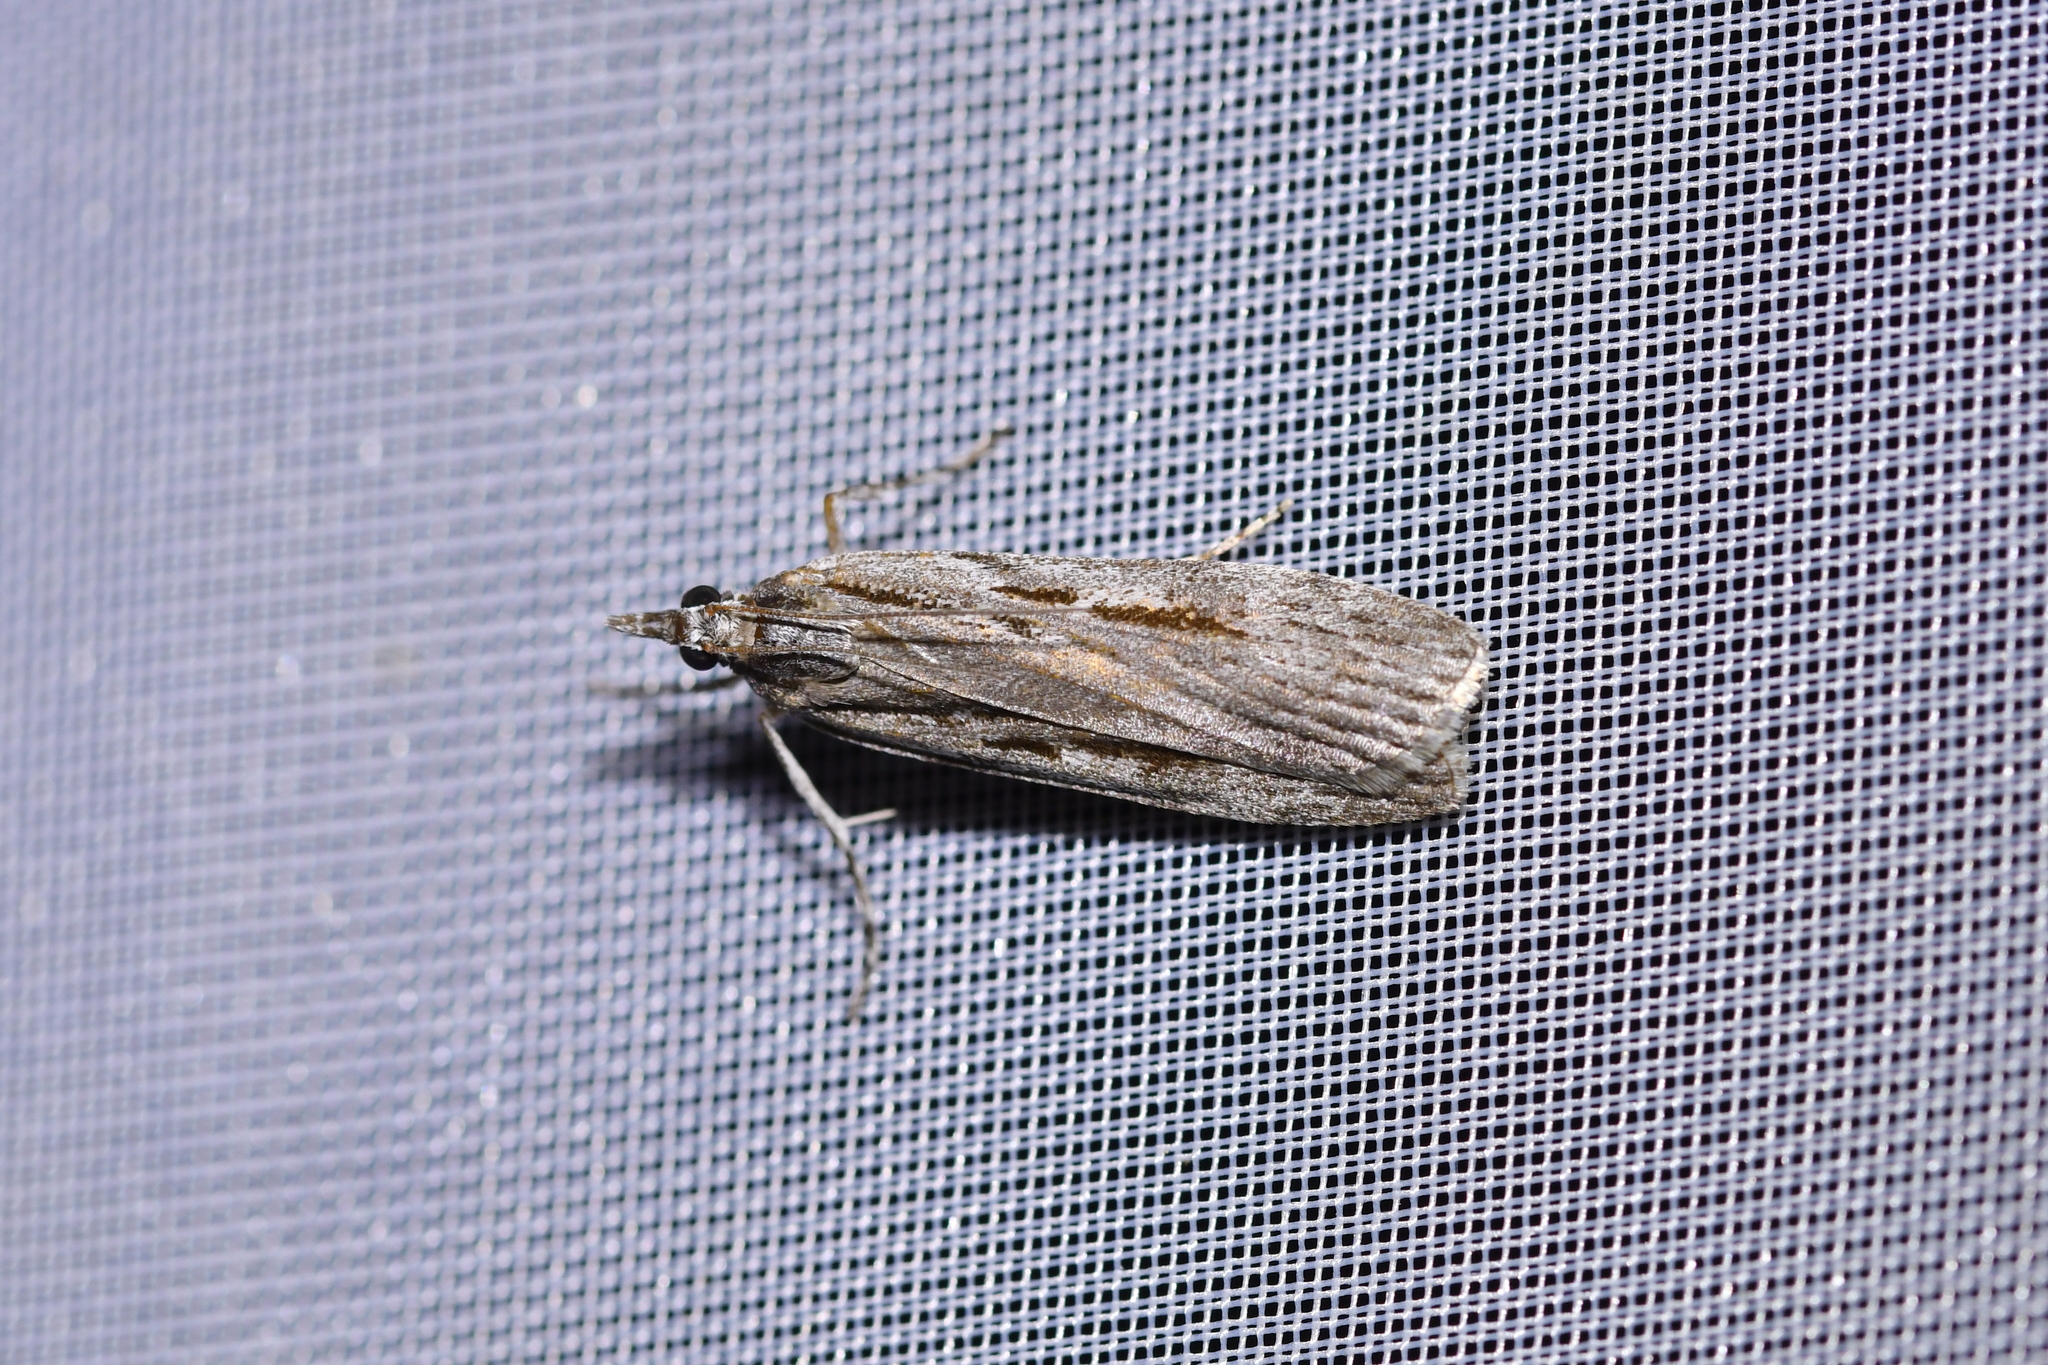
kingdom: Animalia
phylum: Arthropoda
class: Insecta
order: Lepidoptera
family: Crambidae
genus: Scoparia
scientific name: Scoparia indistinctalis
